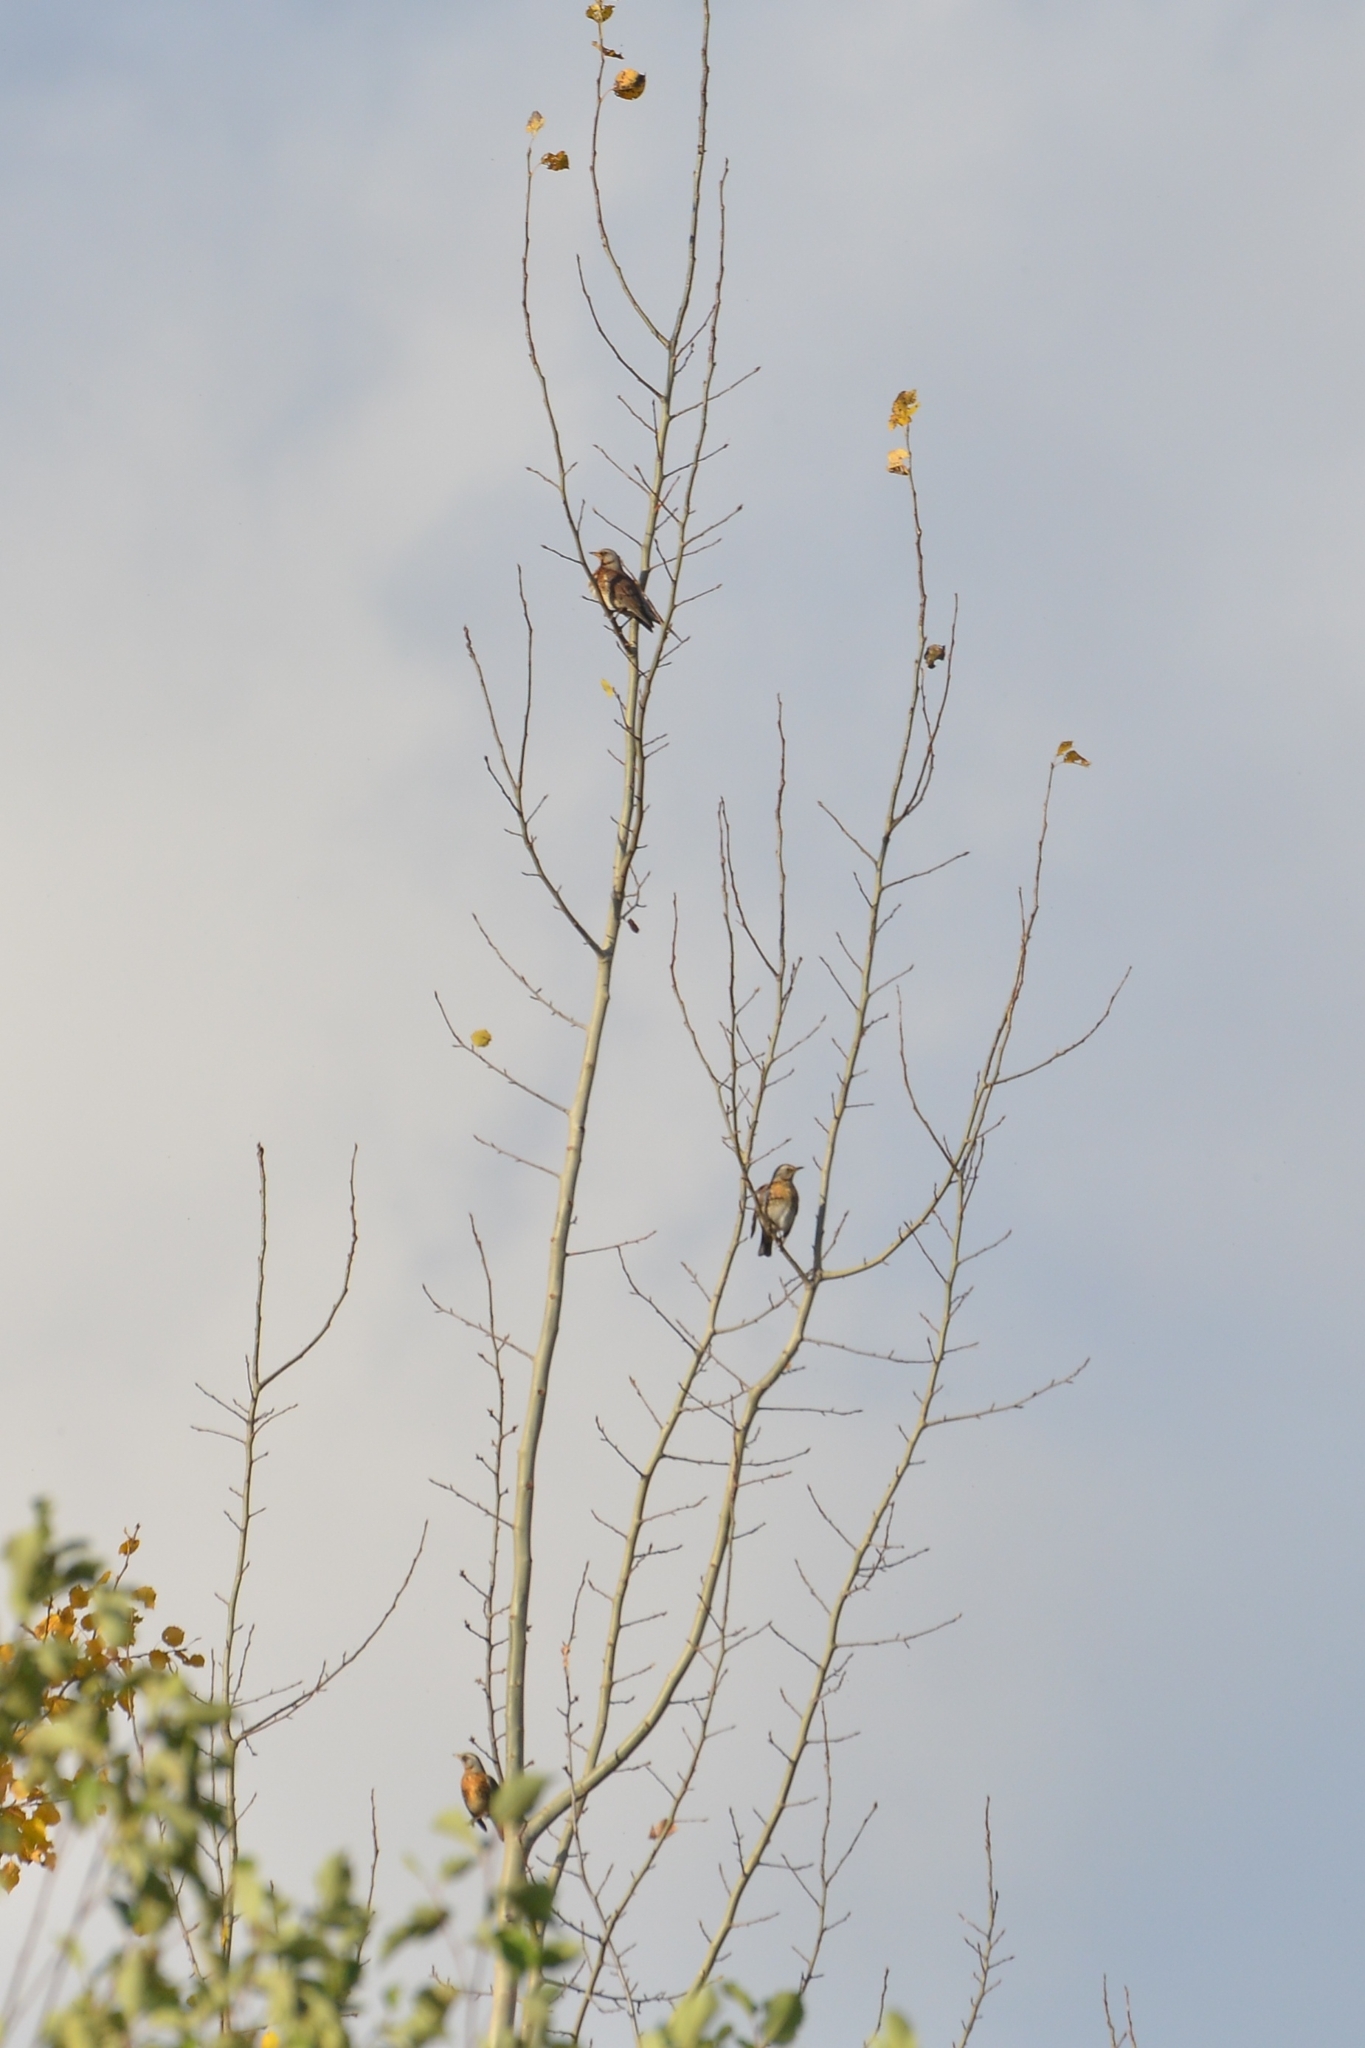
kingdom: Animalia
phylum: Chordata
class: Aves
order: Passeriformes
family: Turdidae
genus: Turdus
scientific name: Turdus pilaris
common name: Fieldfare
